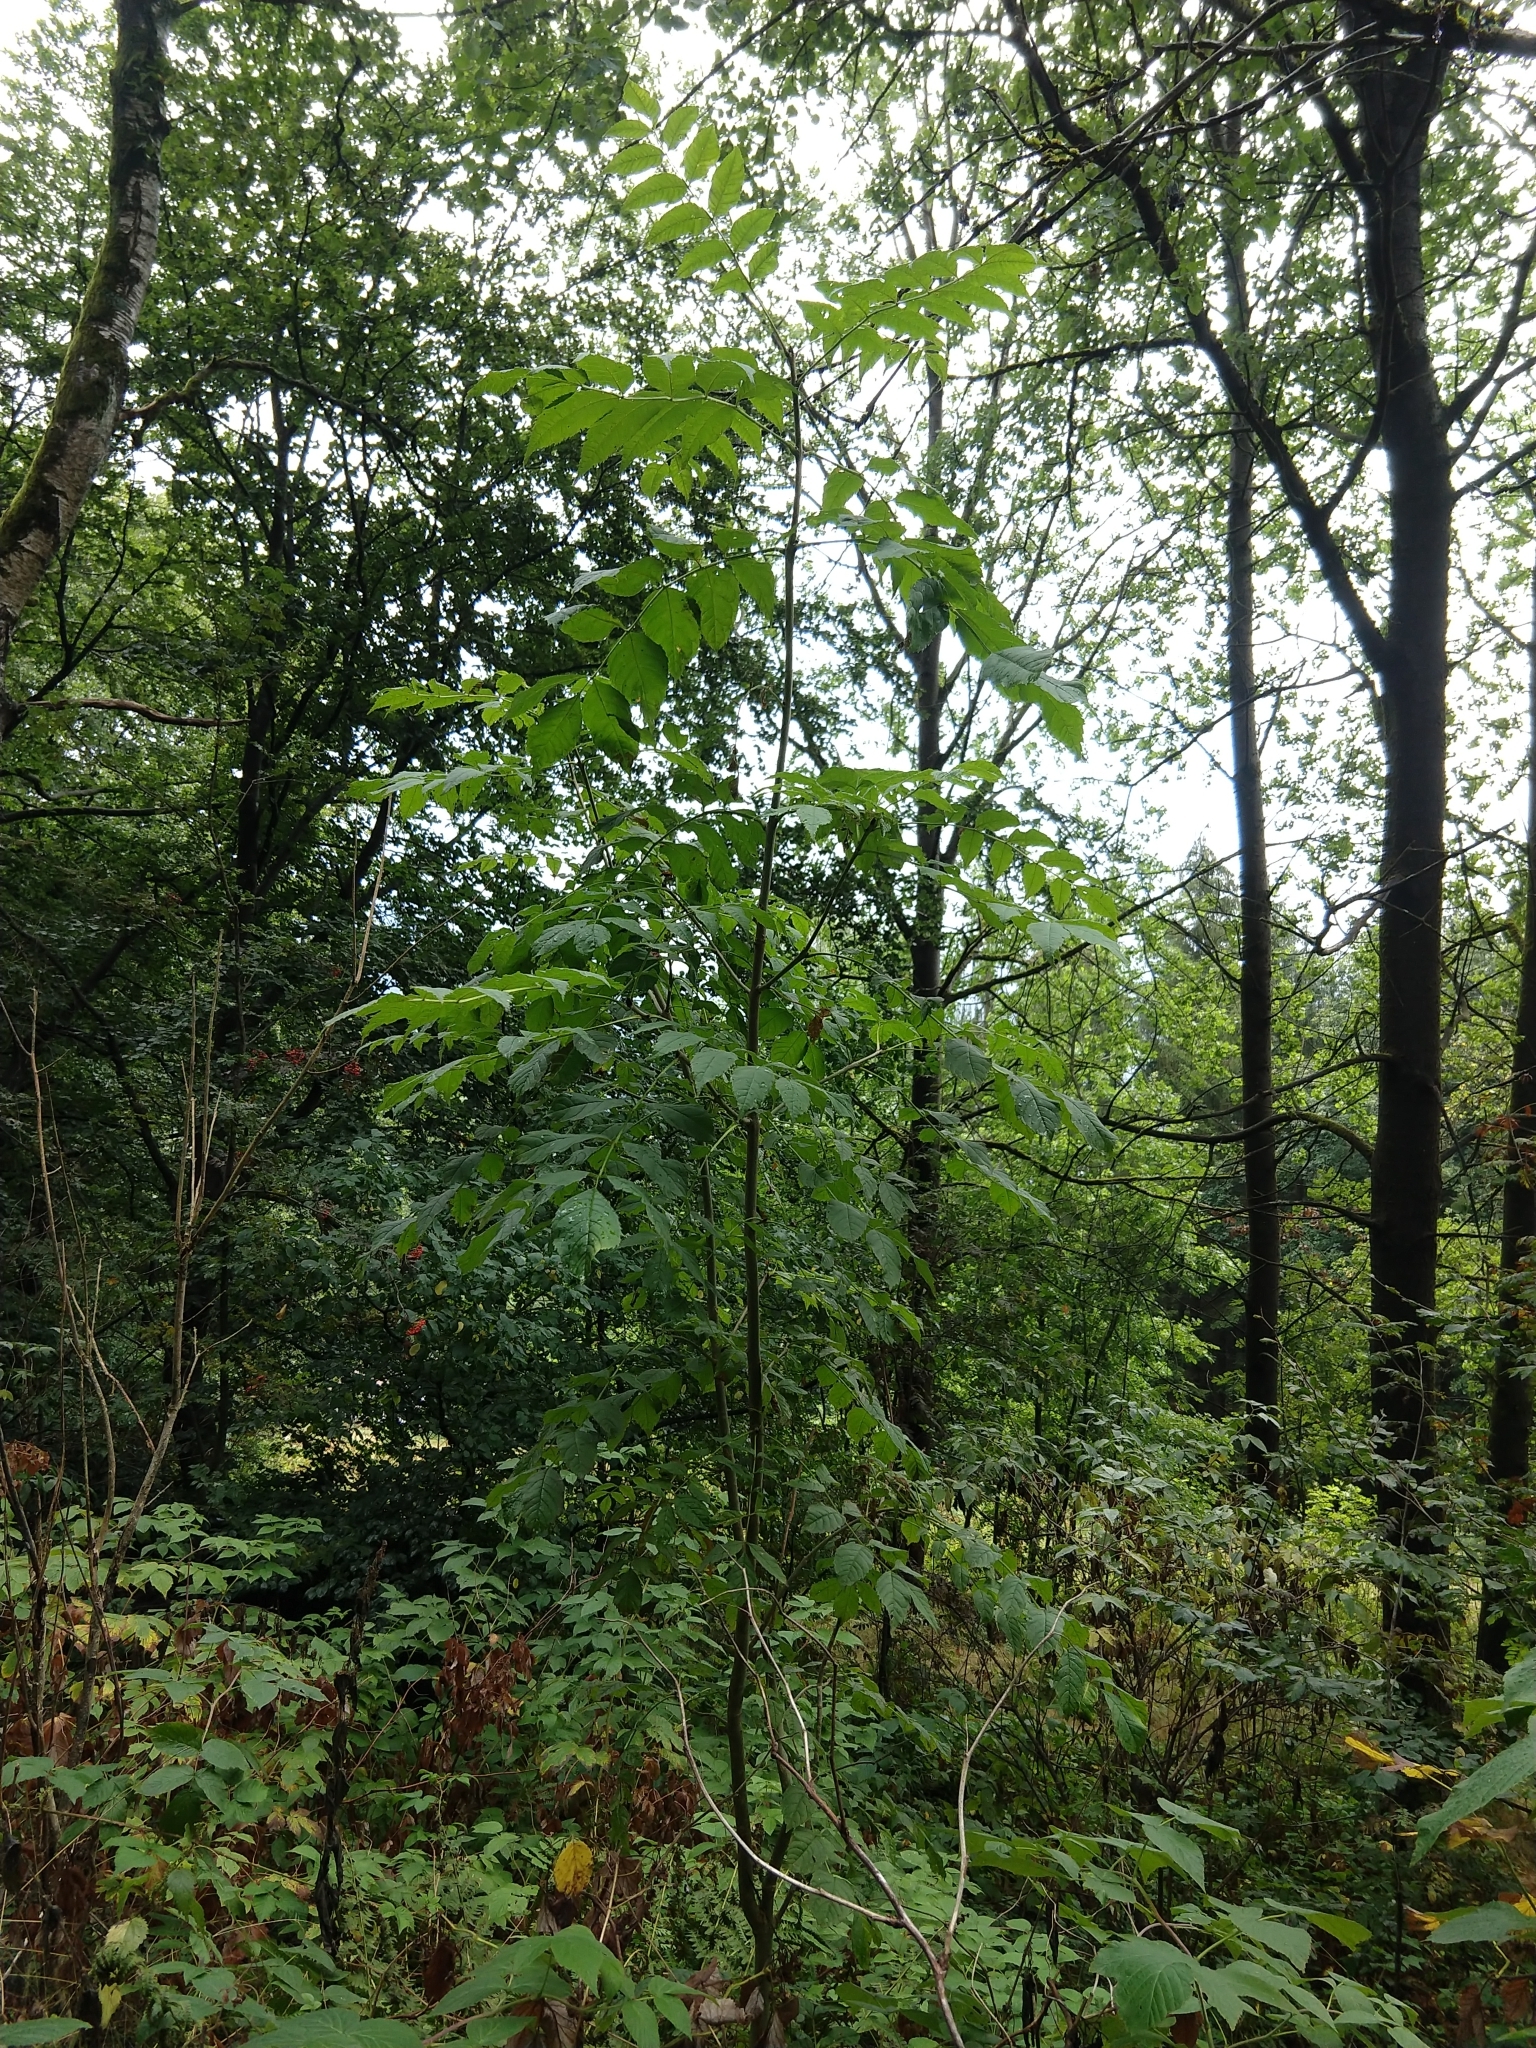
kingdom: Plantae
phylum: Tracheophyta
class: Magnoliopsida
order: Lamiales
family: Oleaceae
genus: Fraxinus
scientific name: Fraxinus excelsior
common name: European ash
